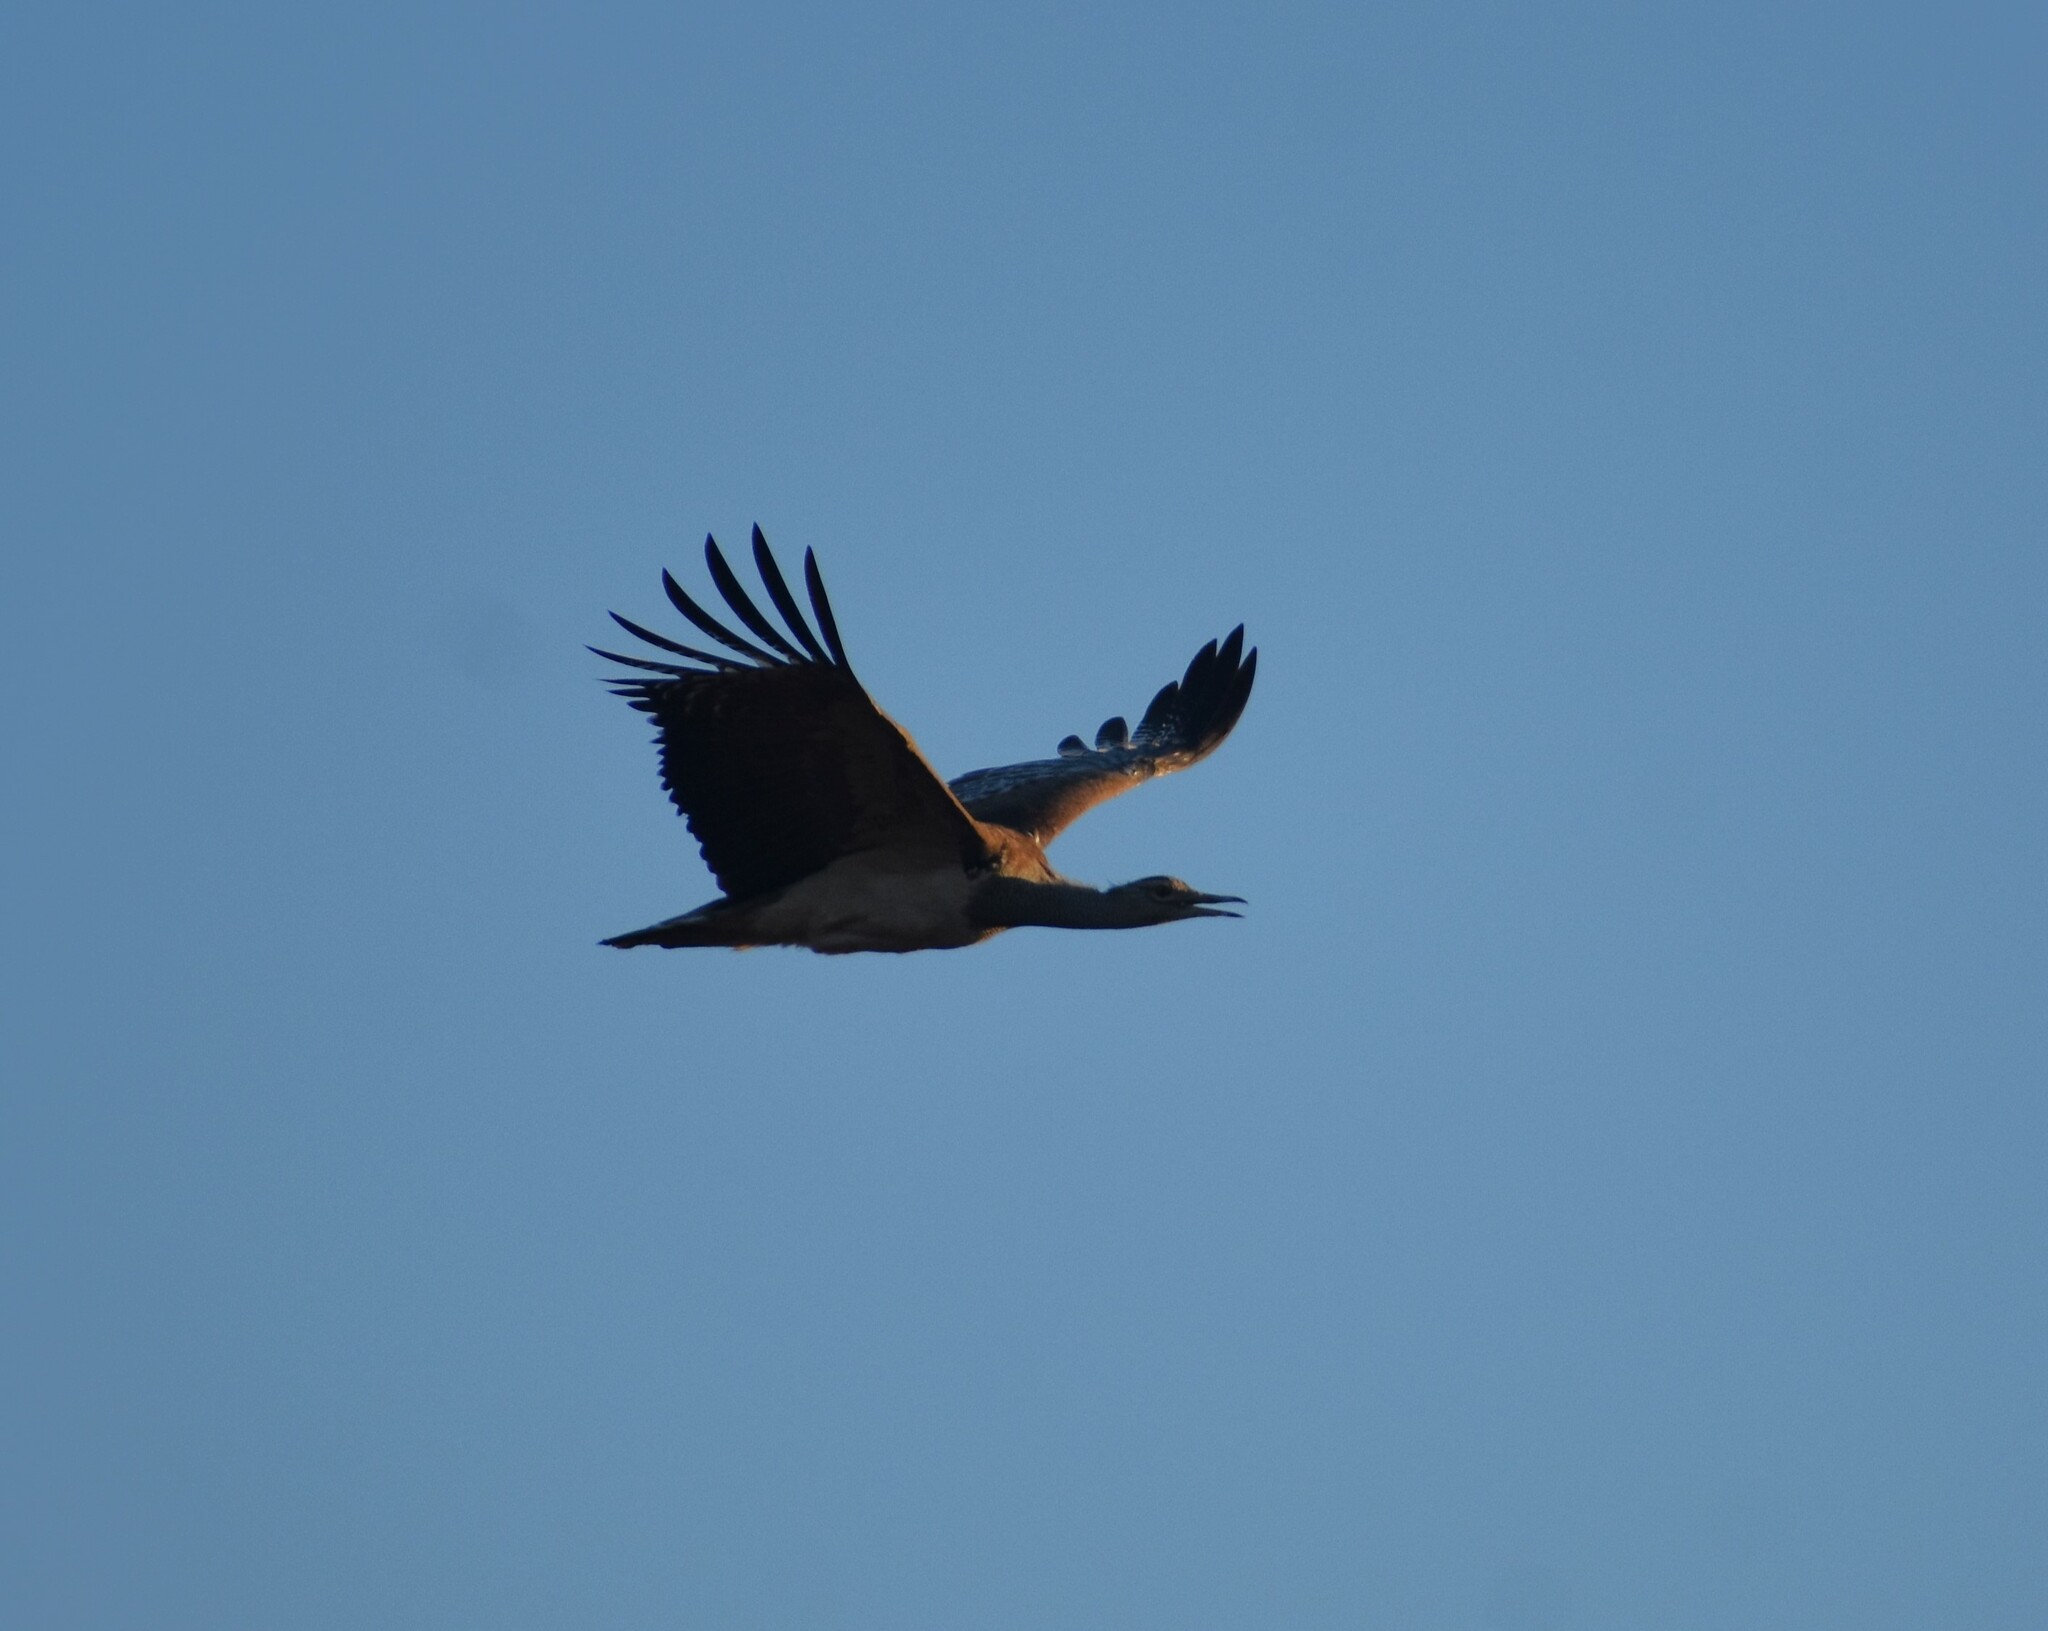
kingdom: Animalia
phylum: Chordata
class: Aves
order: Otidiformes
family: Otididae
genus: Ardeotis
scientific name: Ardeotis kori
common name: Kori bustard
